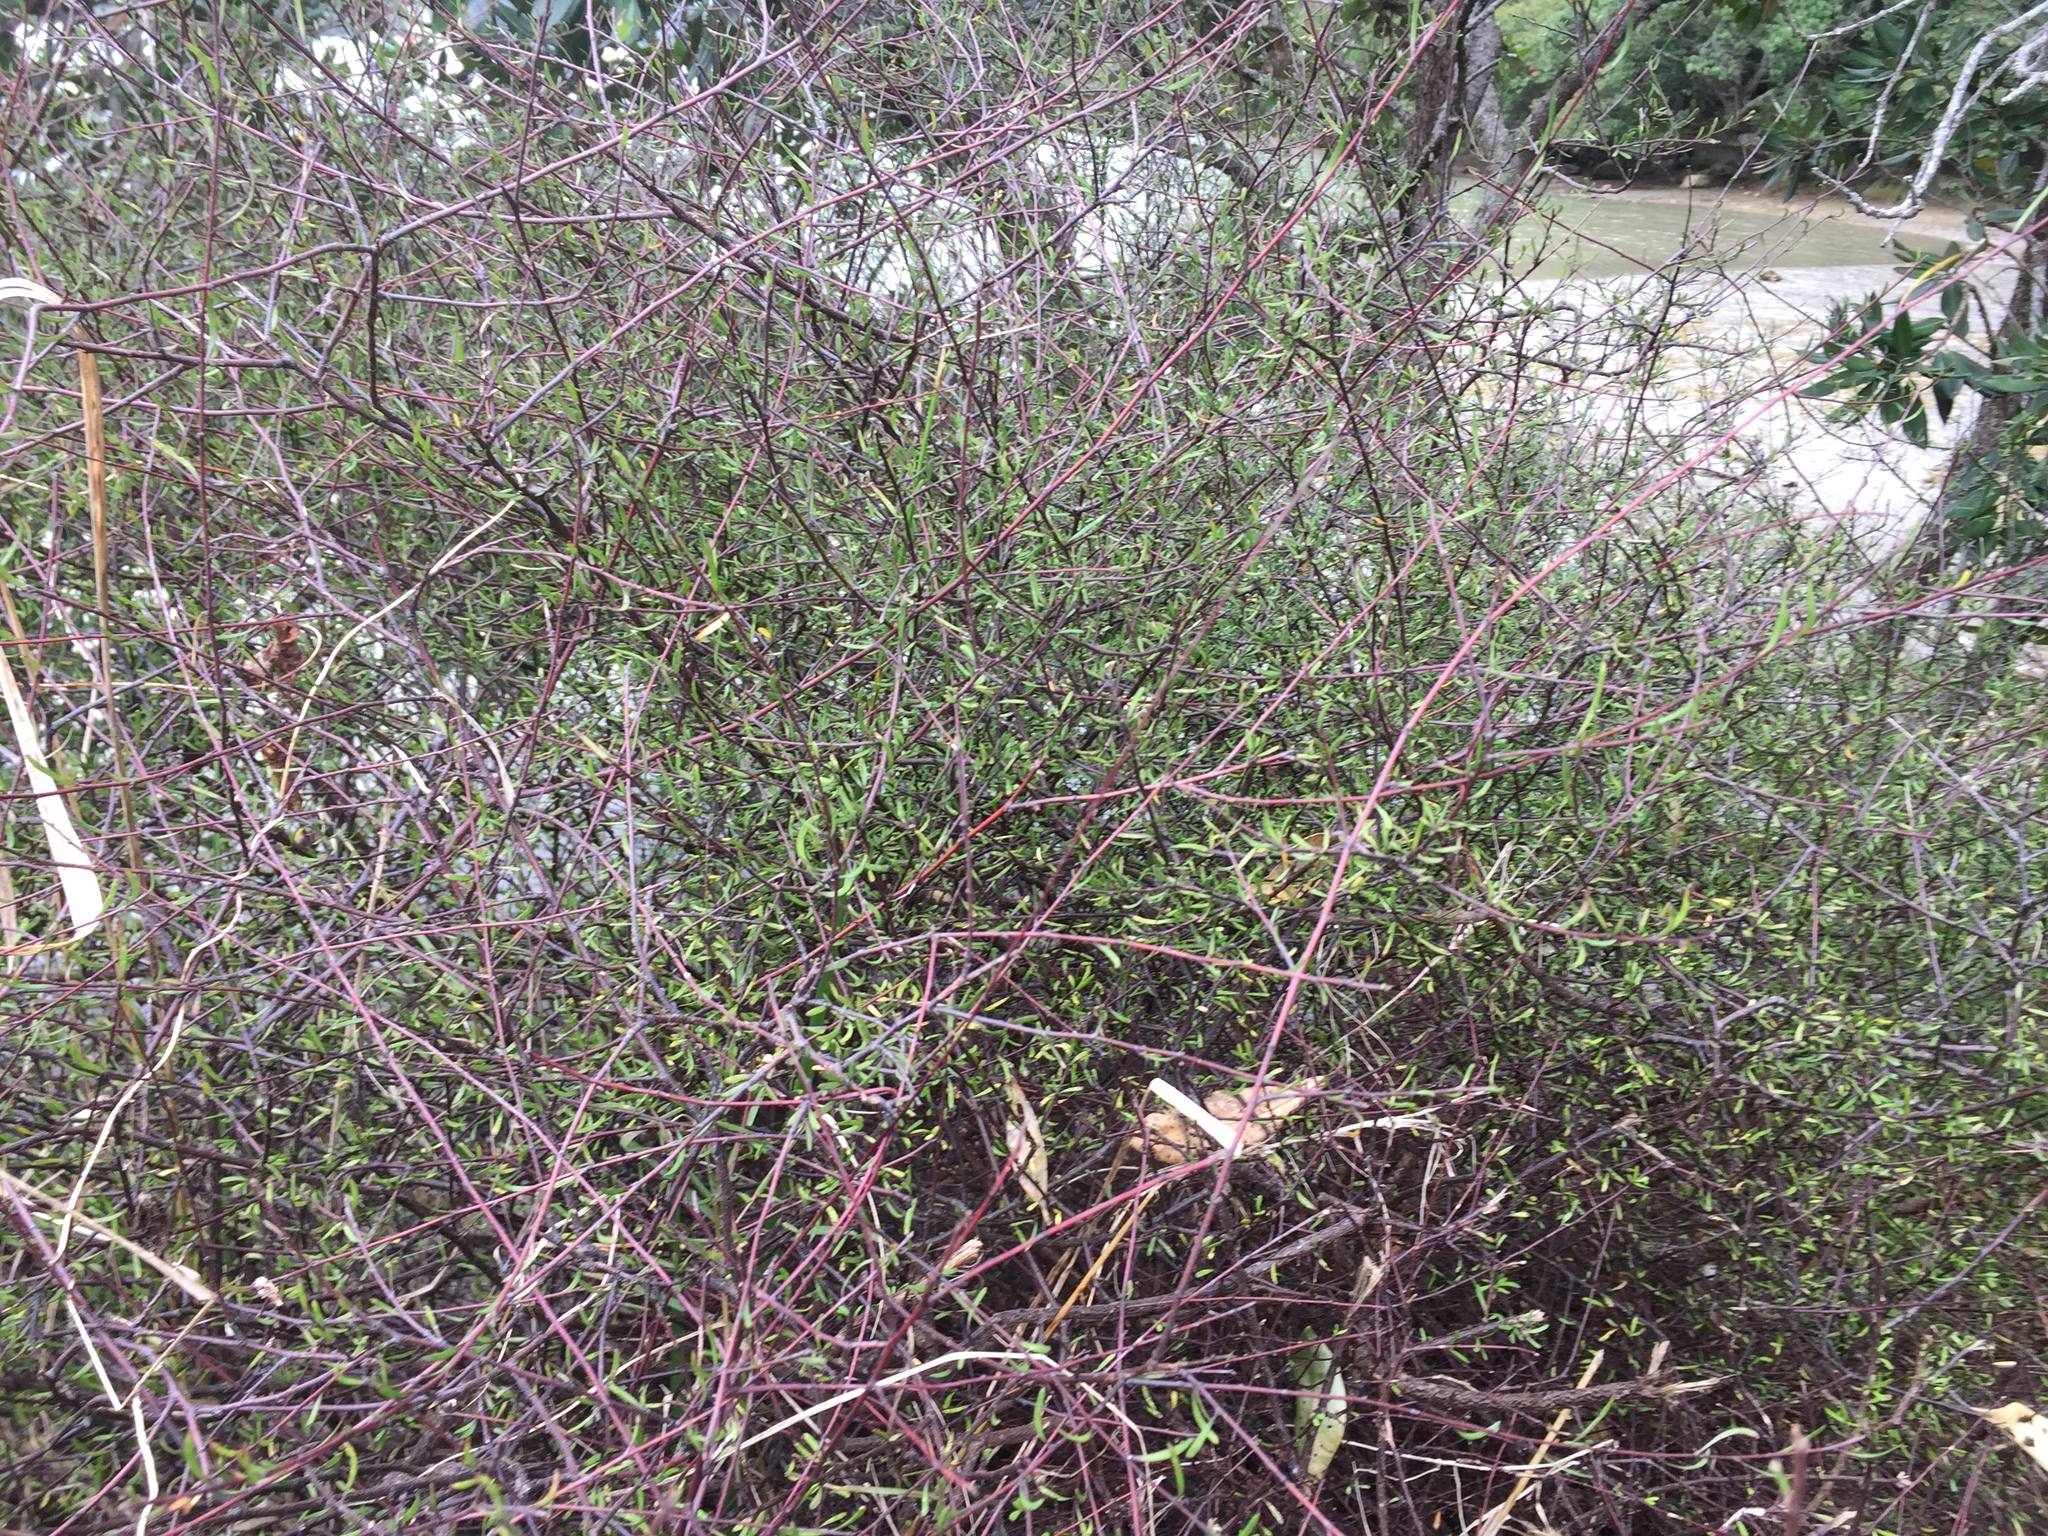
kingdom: Plantae
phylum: Tracheophyta
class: Magnoliopsida
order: Malvales
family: Malvaceae
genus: Plagianthus
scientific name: Plagianthus divaricatus
